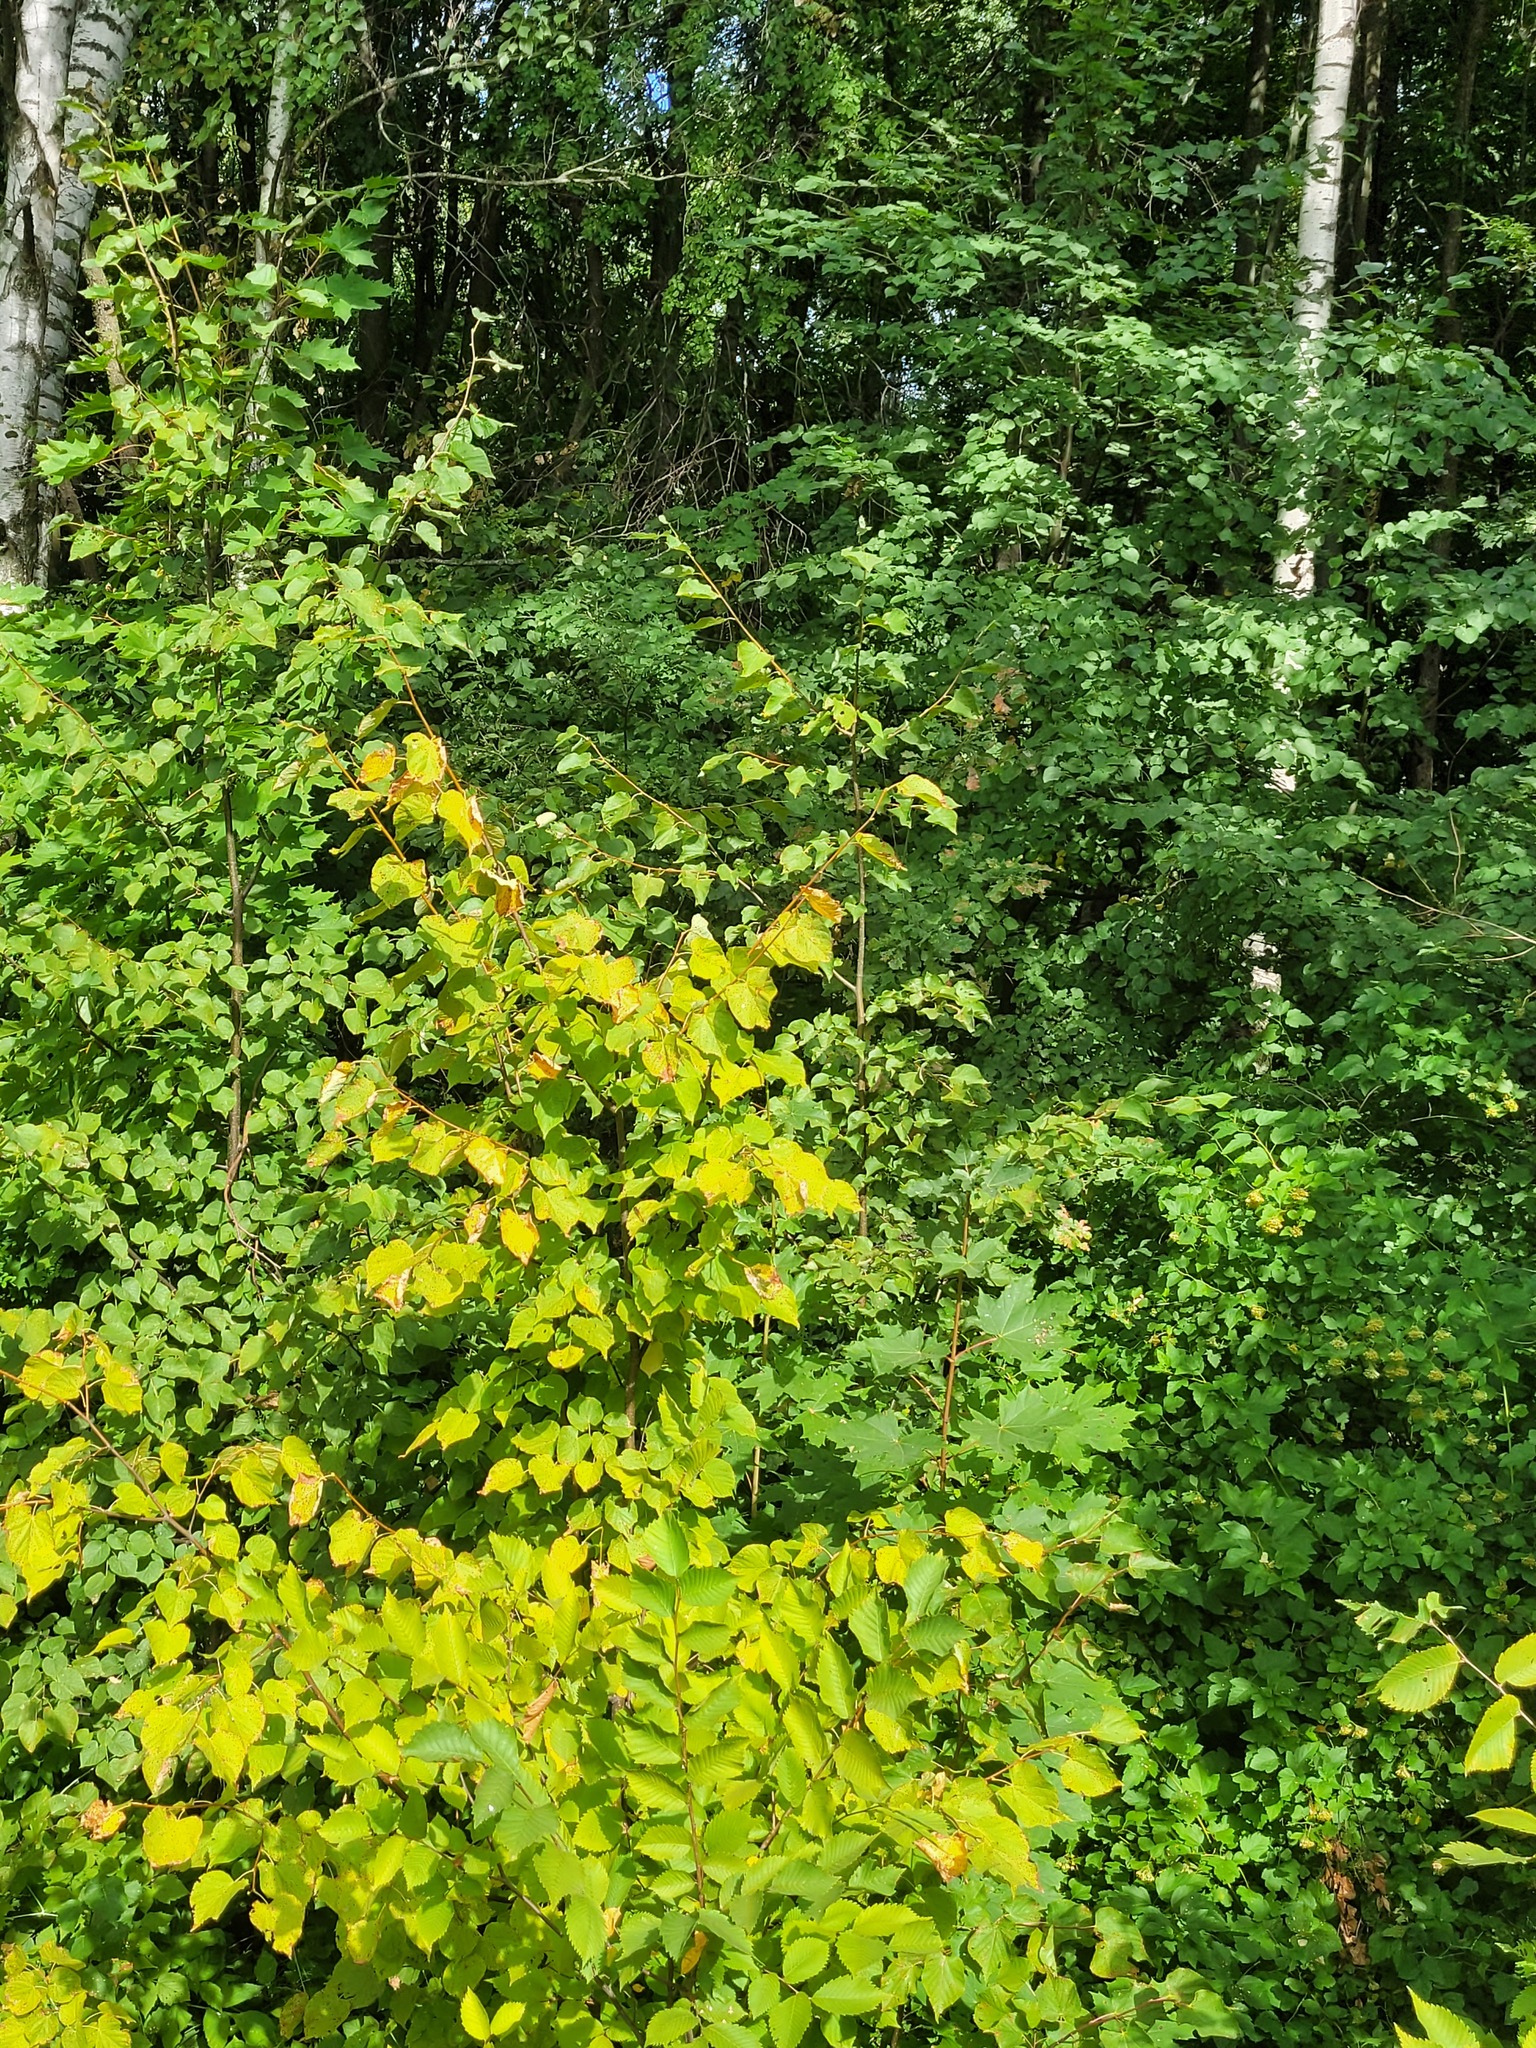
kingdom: Plantae
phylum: Tracheophyta
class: Magnoliopsida
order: Malvales
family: Malvaceae
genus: Tilia
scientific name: Tilia cordata
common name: Small-leaved lime
